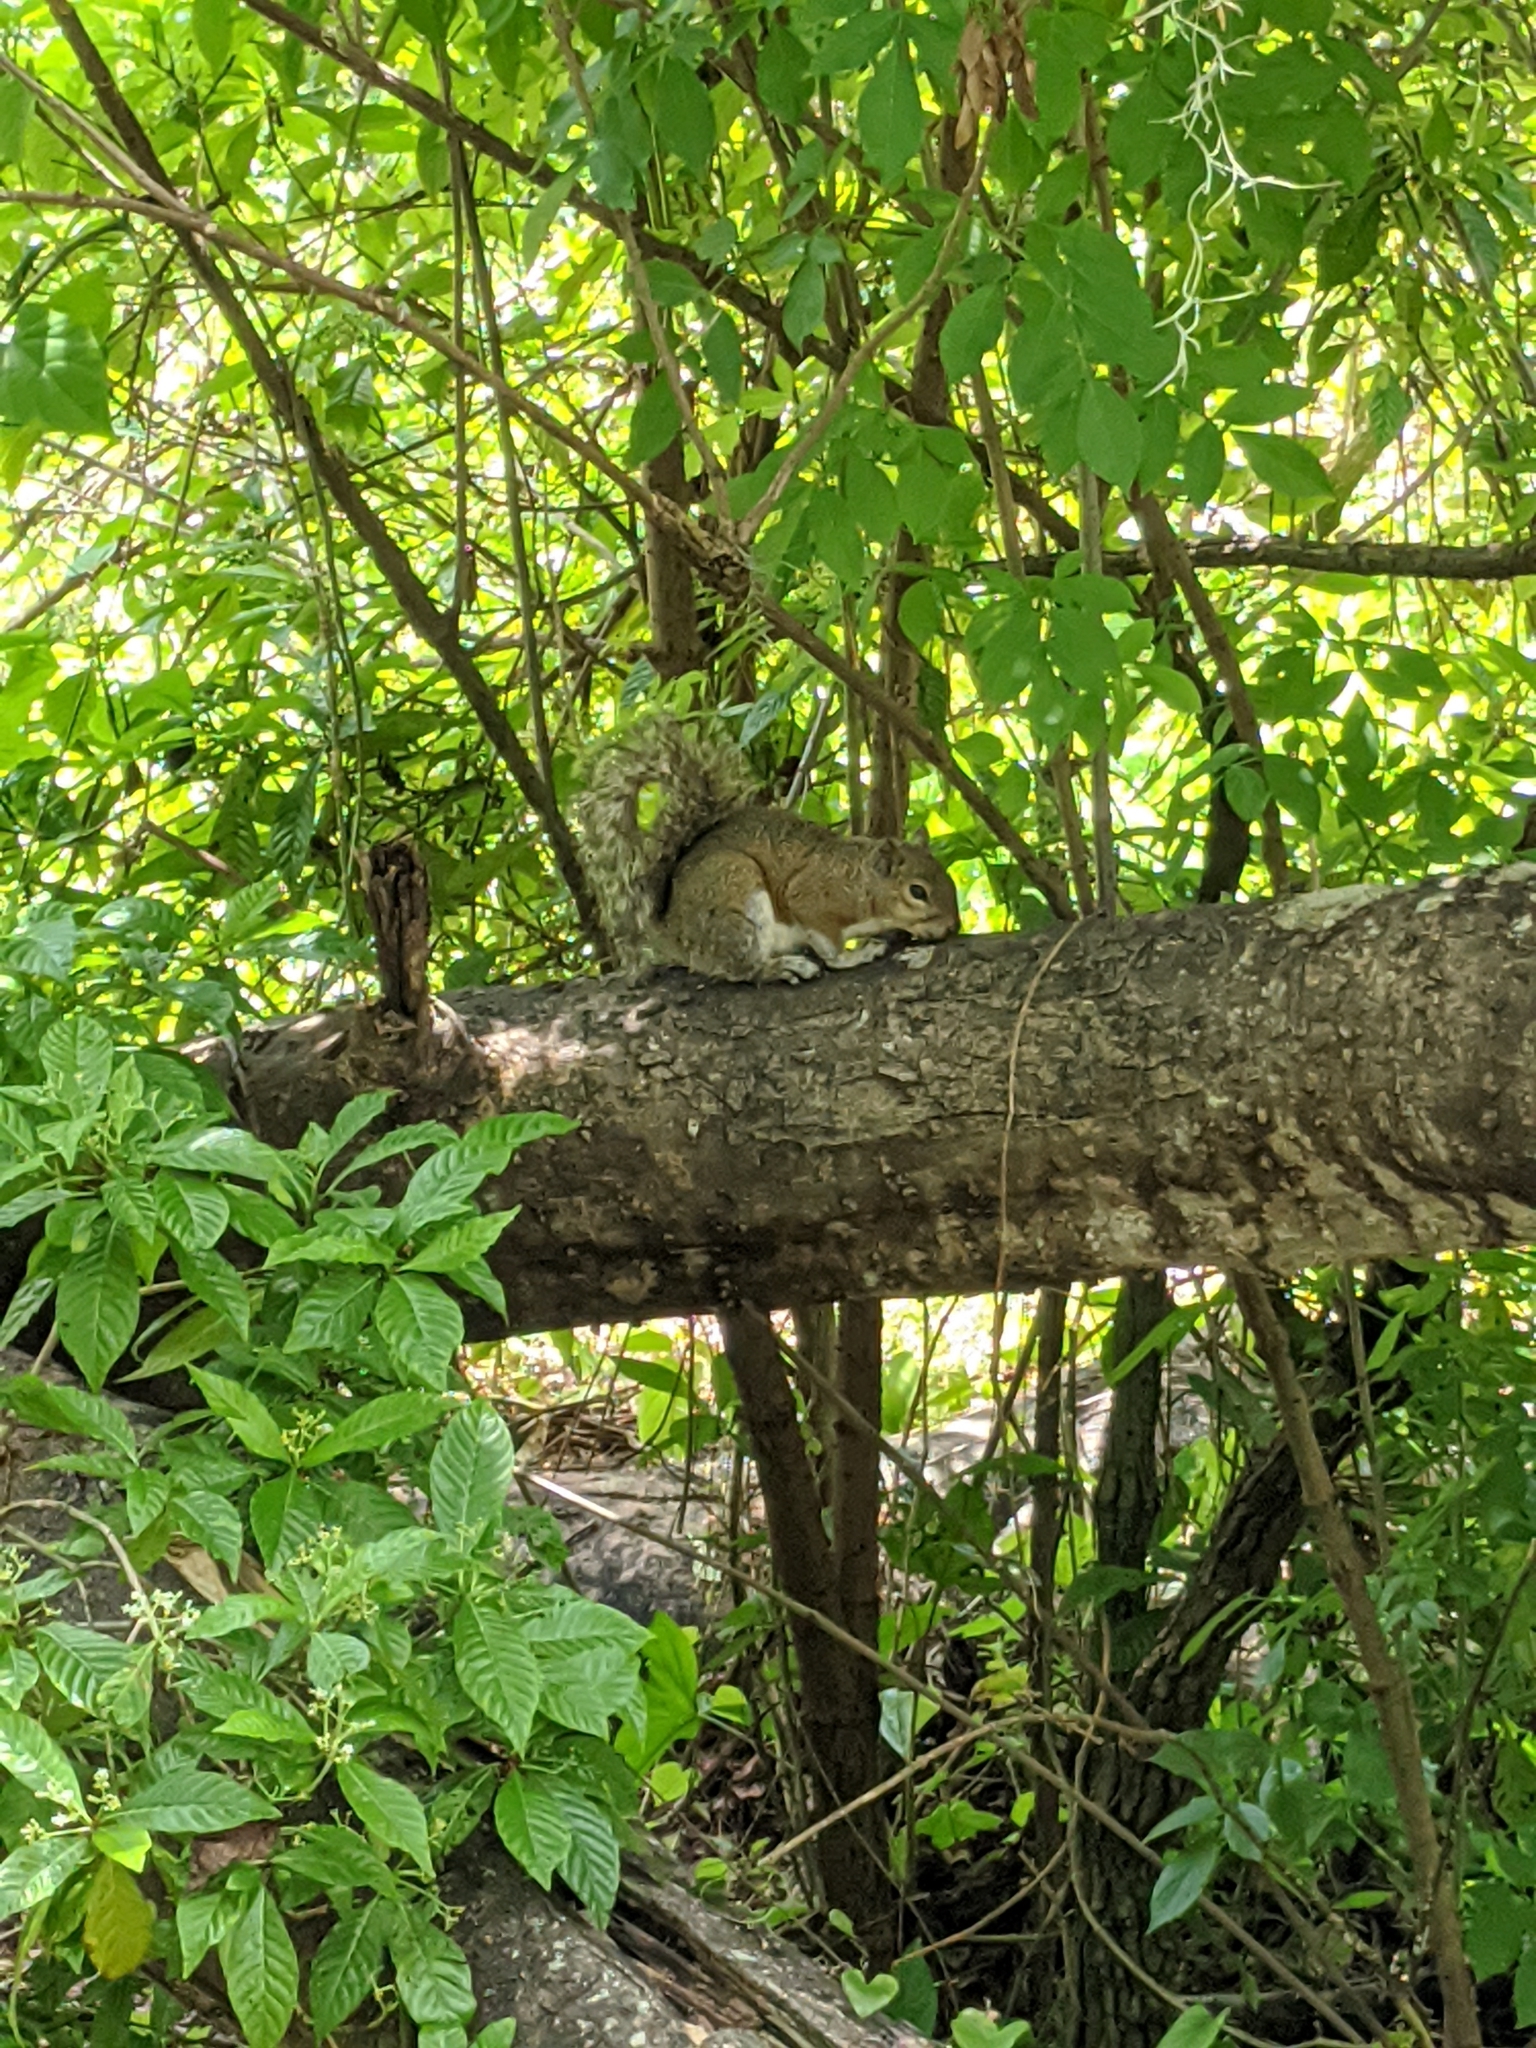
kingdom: Animalia
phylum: Chordata
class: Mammalia
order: Rodentia
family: Sciuridae
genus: Sciurus
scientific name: Sciurus carolinensis
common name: Eastern gray squirrel
